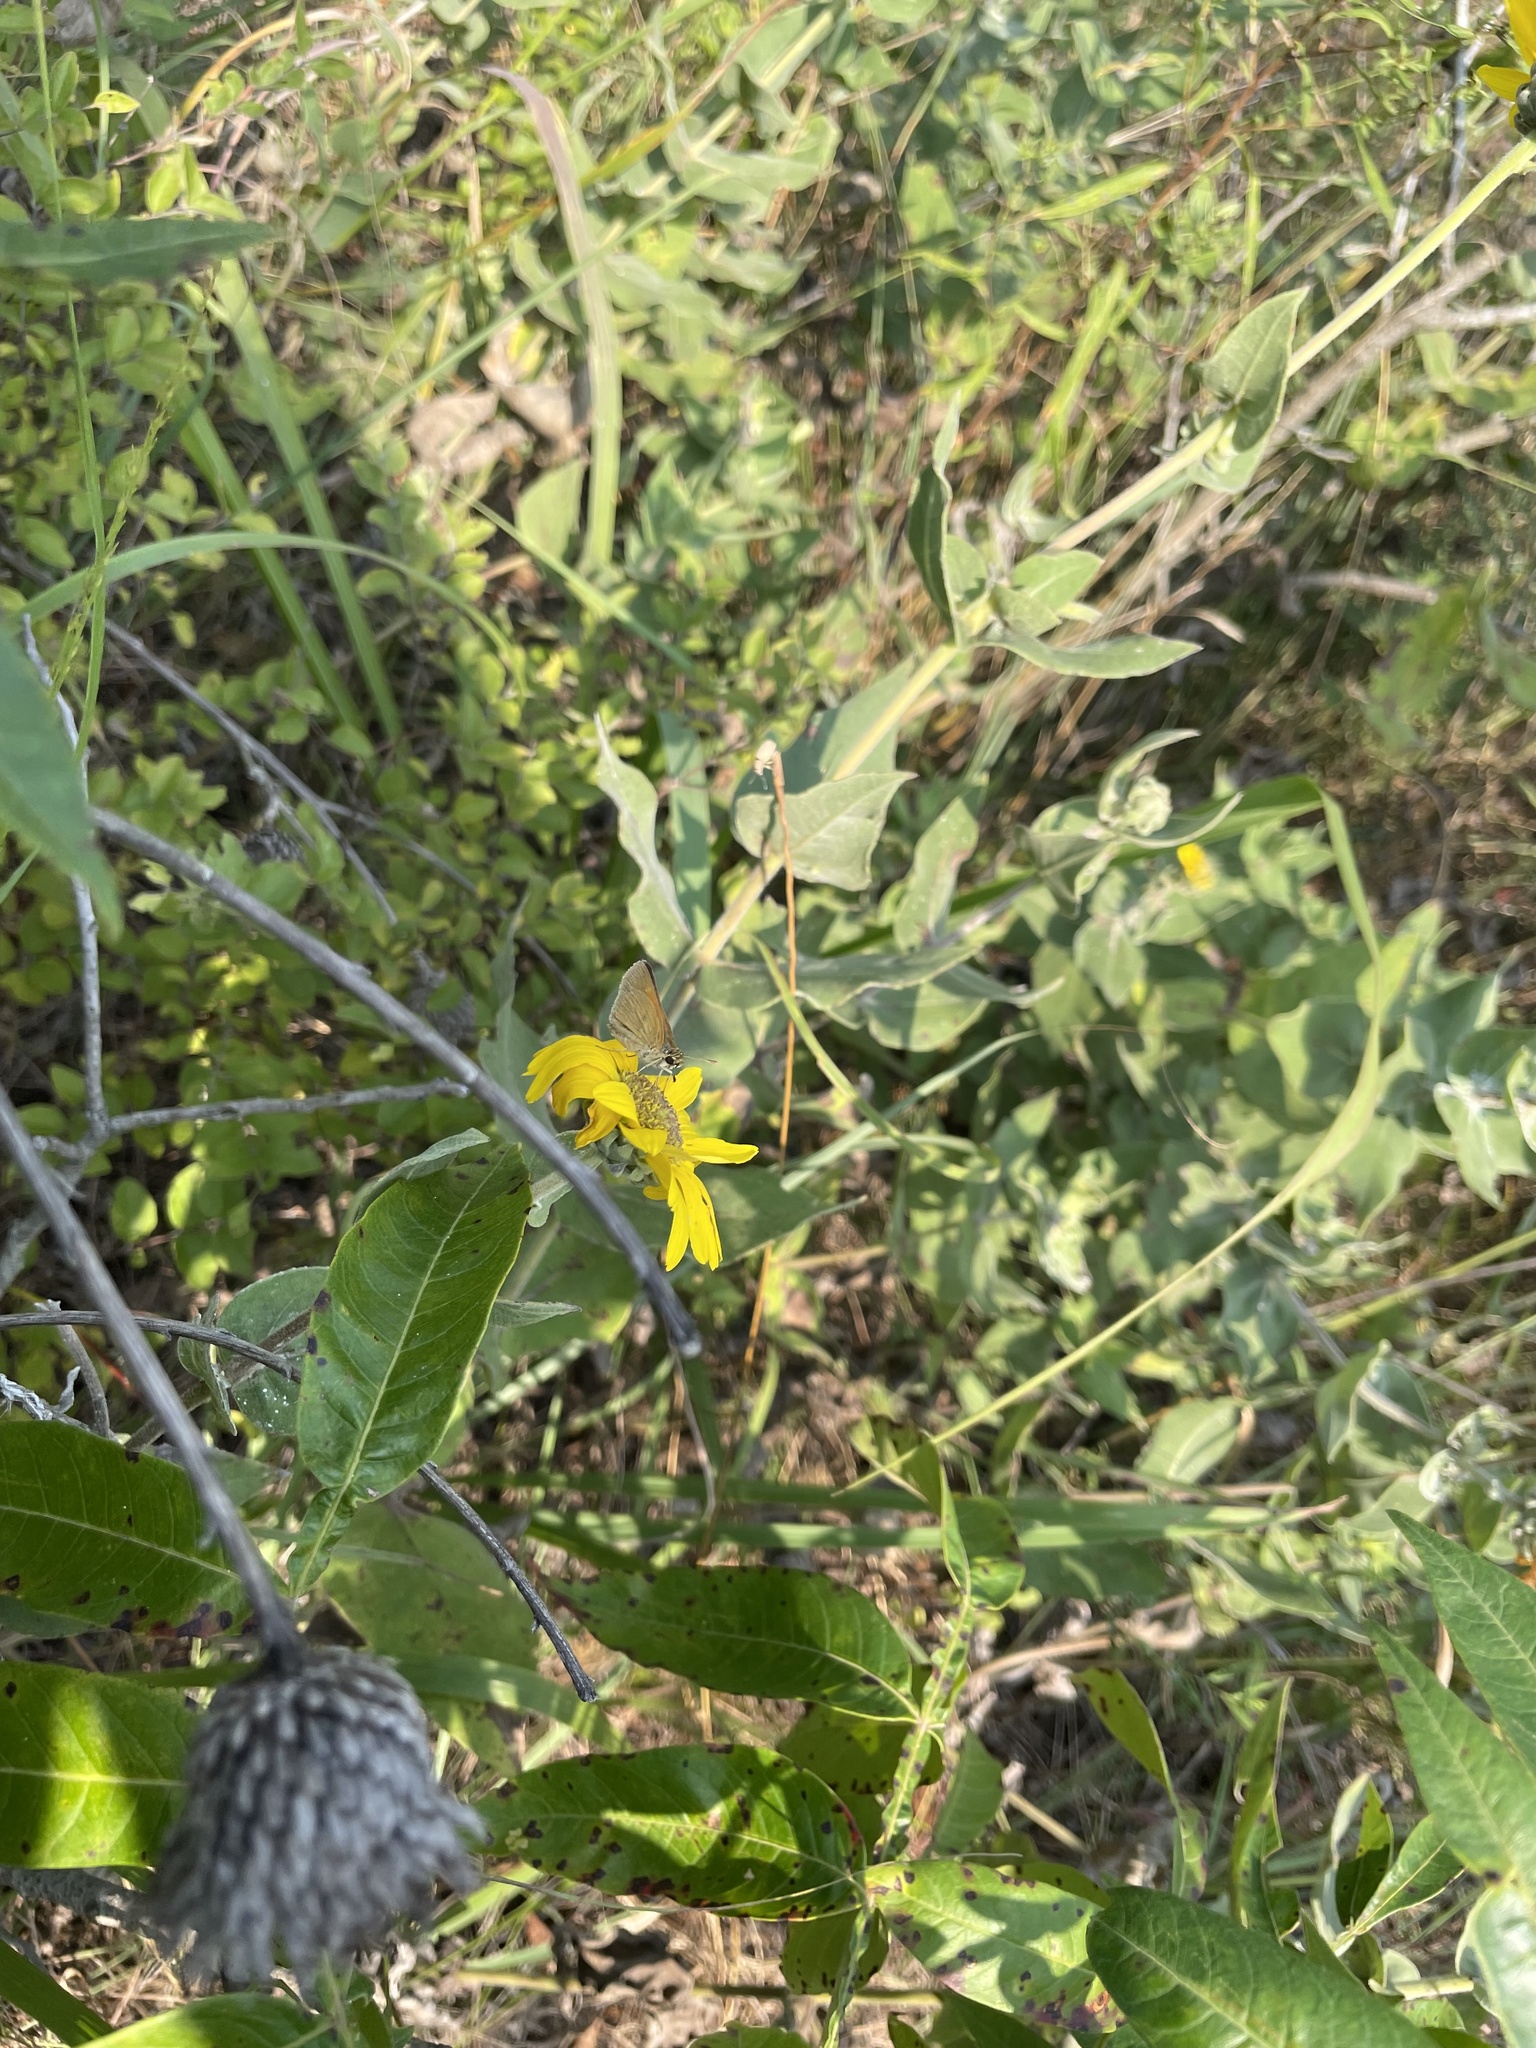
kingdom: Animalia
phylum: Arthropoda
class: Insecta
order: Lepidoptera
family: Hesperiidae
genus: Polites
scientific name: Polites themistocles
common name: Tawny-edged skipper
